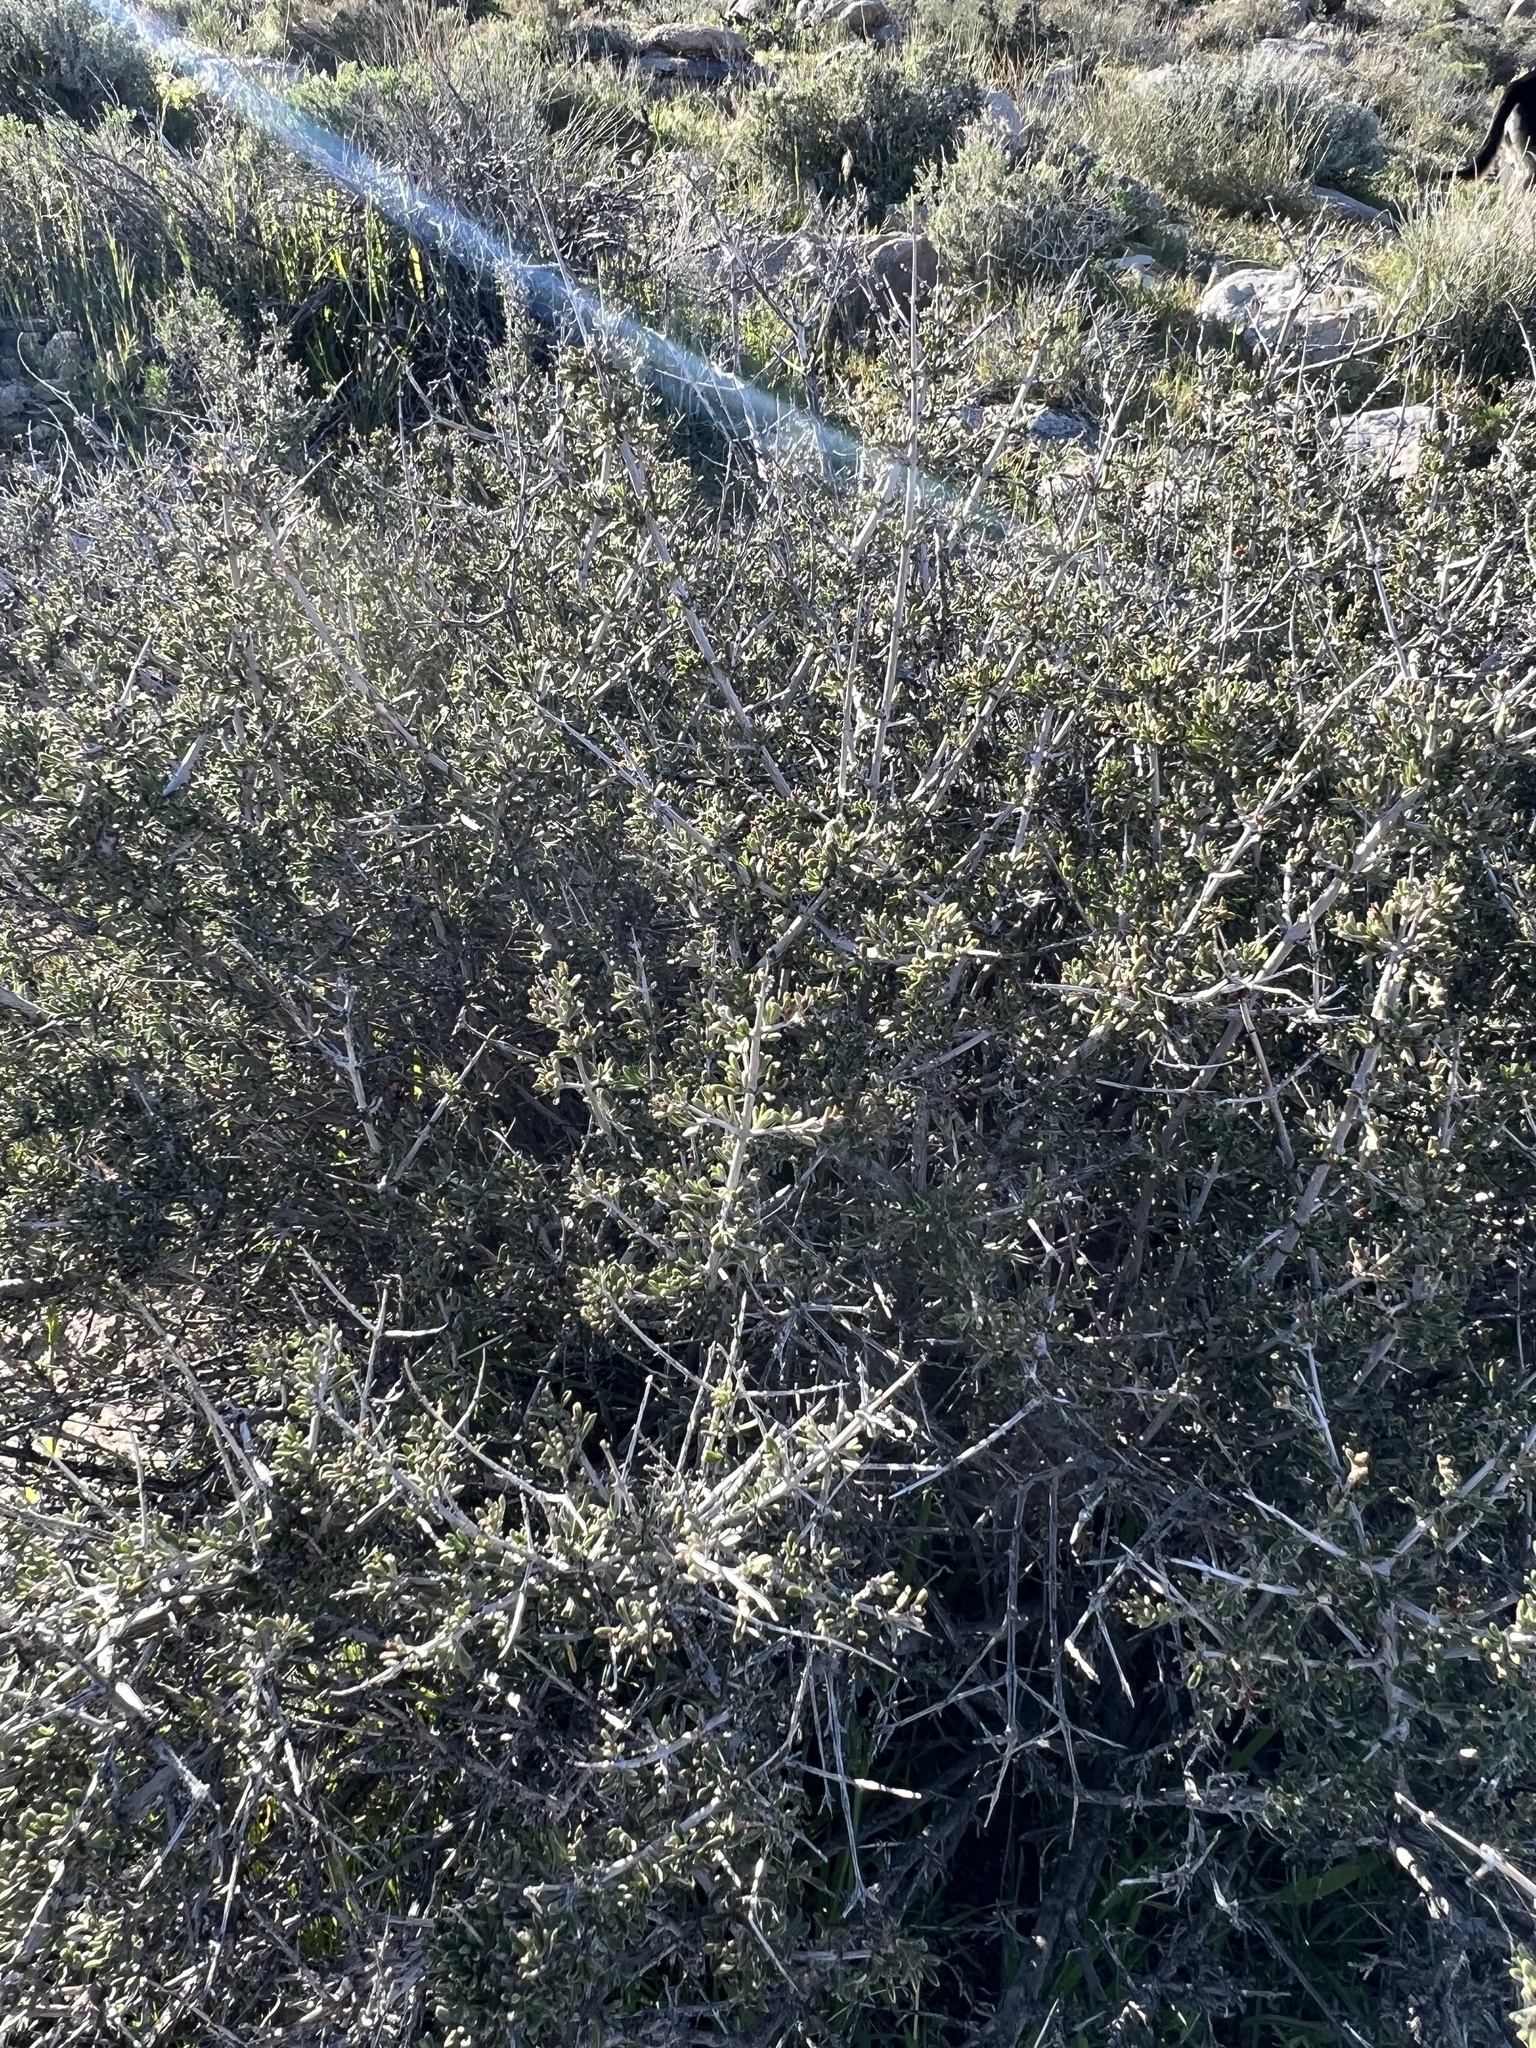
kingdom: Plantae
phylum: Tracheophyta
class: Magnoliopsida
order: Rosales
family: Rosaceae
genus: Coleogyne
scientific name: Coleogyne ramosissima
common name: Blackbrush
